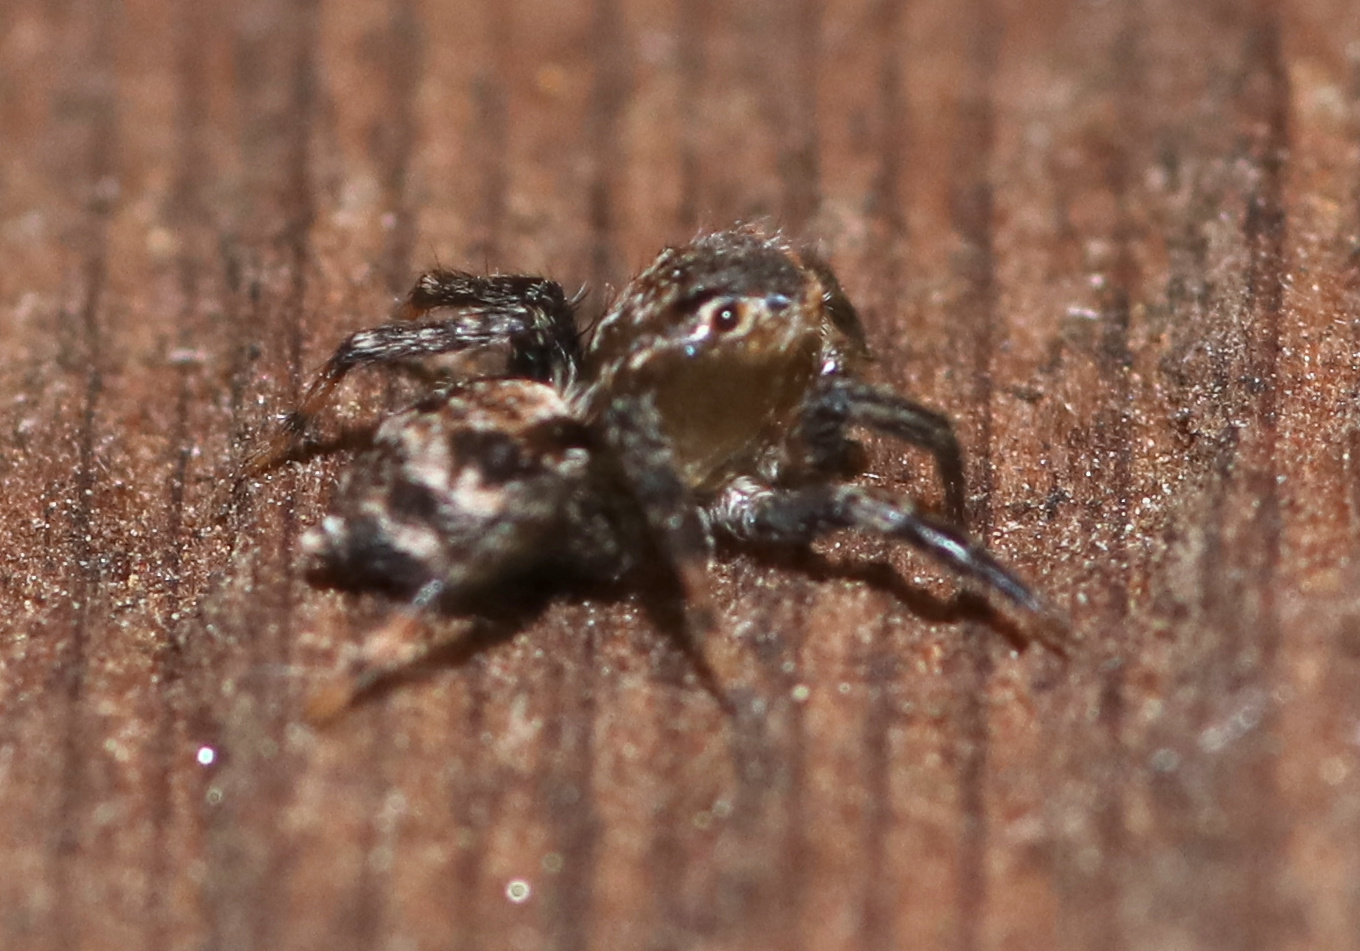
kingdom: Animalia
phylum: Arthropoda
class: Arachnida
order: Araneae
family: Salticidae
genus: Naphrys
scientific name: Naphrys pulex
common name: Flea jumping spider
